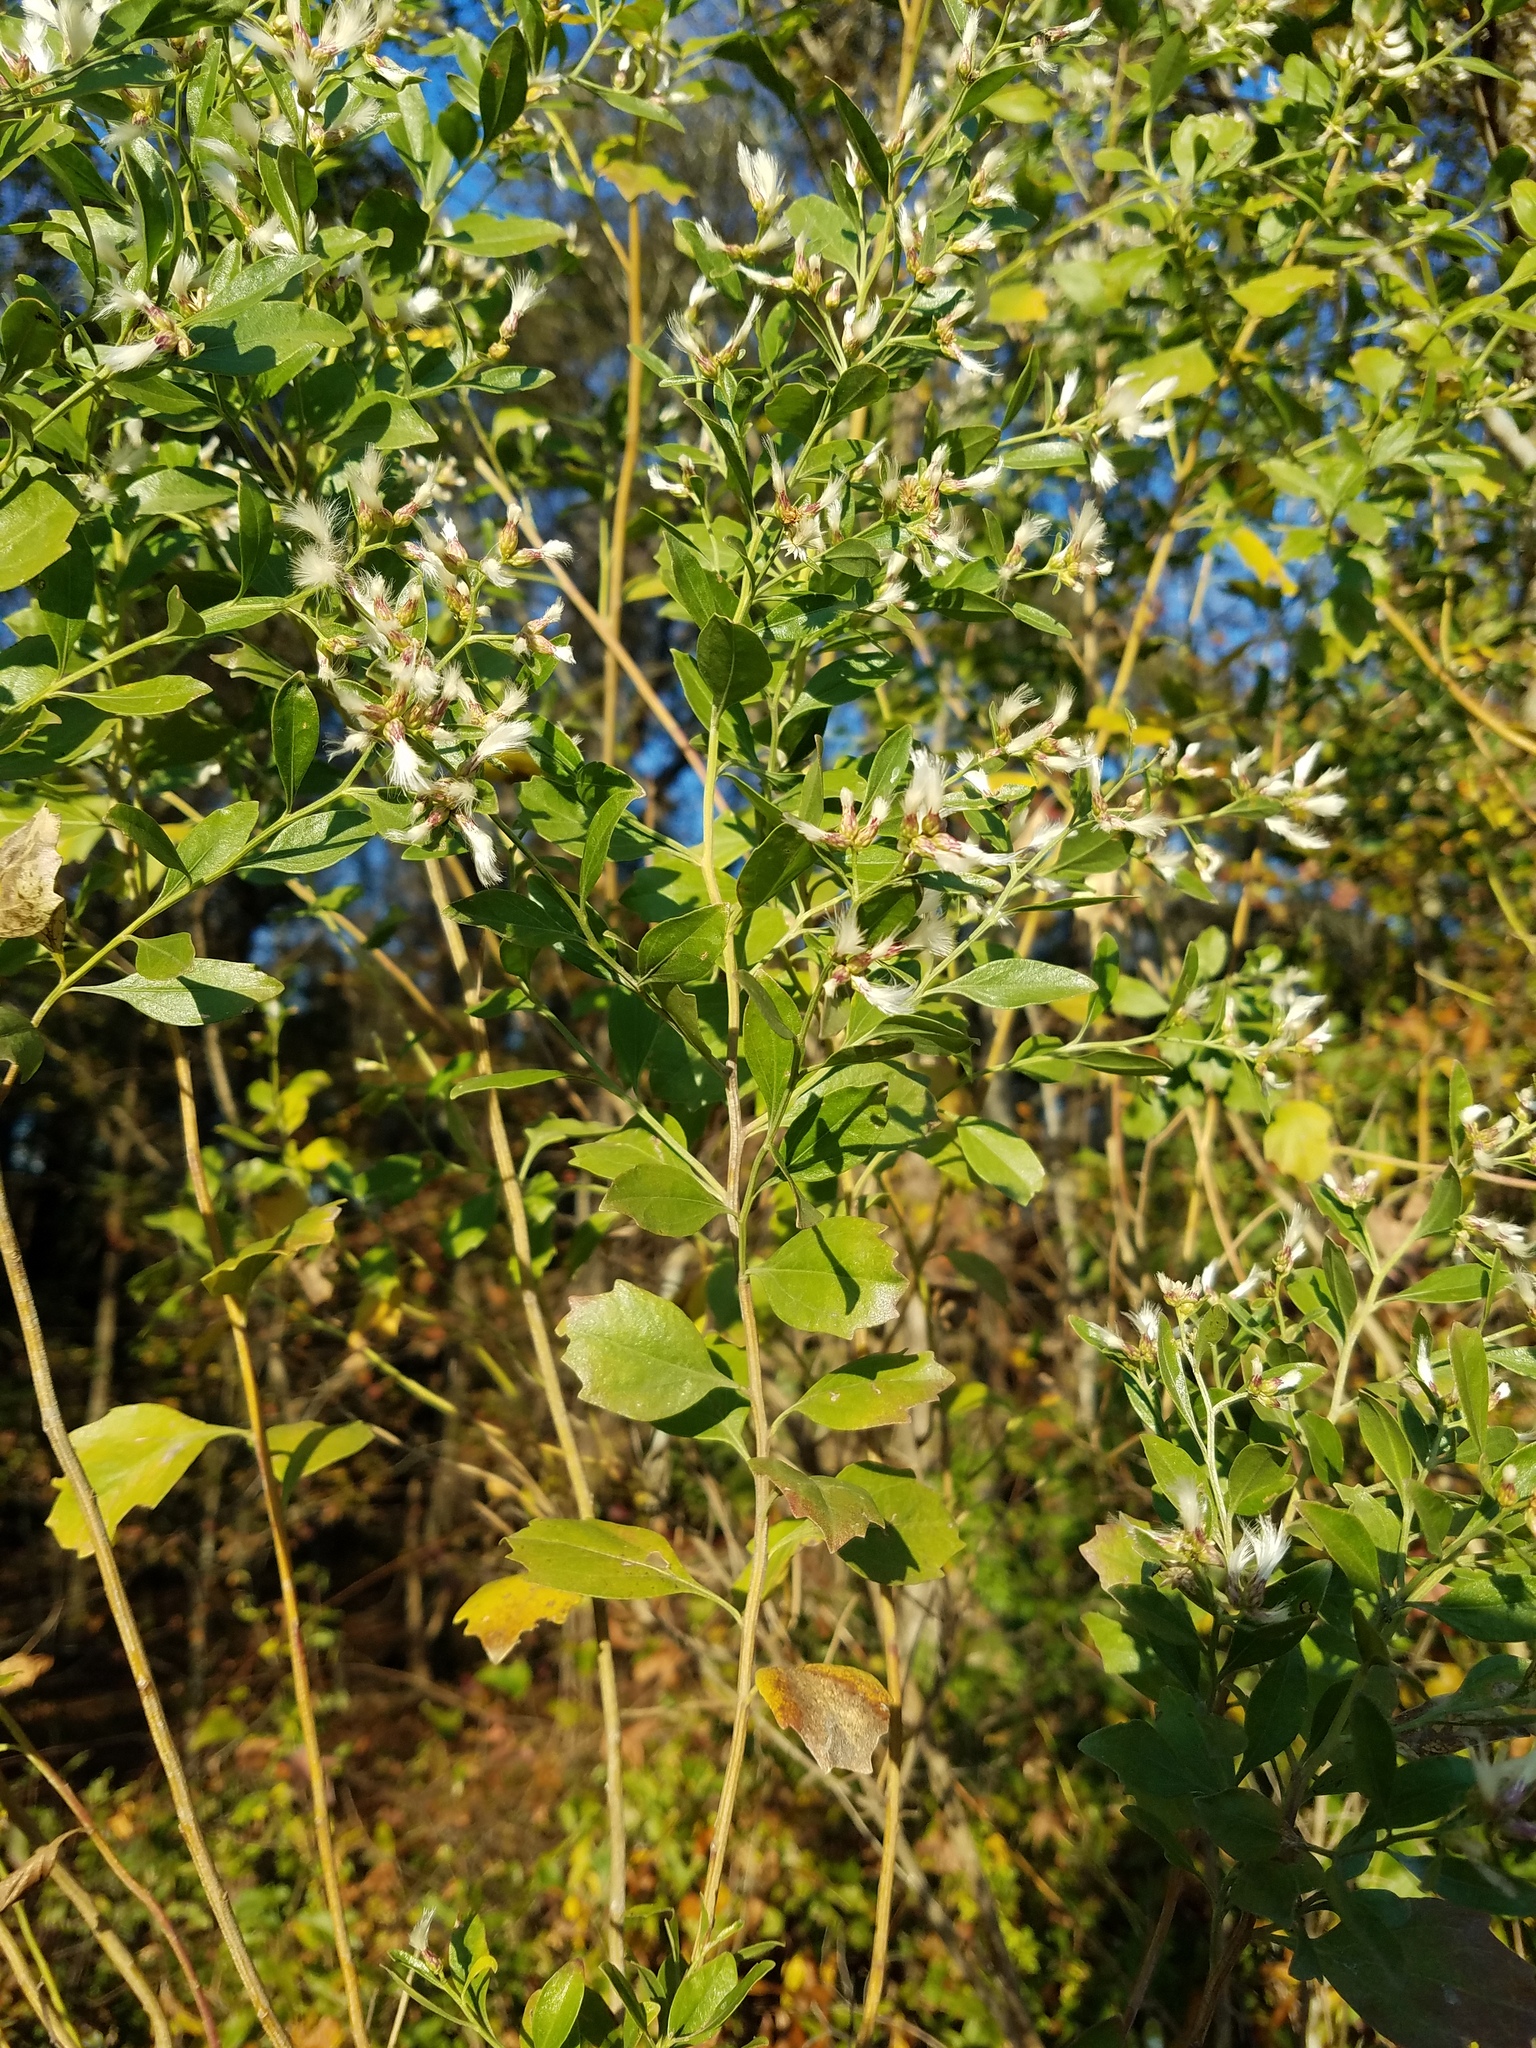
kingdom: Plantae
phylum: Tracheophyta
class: Magnoliopsida
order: Asterales
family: Asteraceae
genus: Baccharis
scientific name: Baccharis halimifolia
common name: Eastern baccharis
